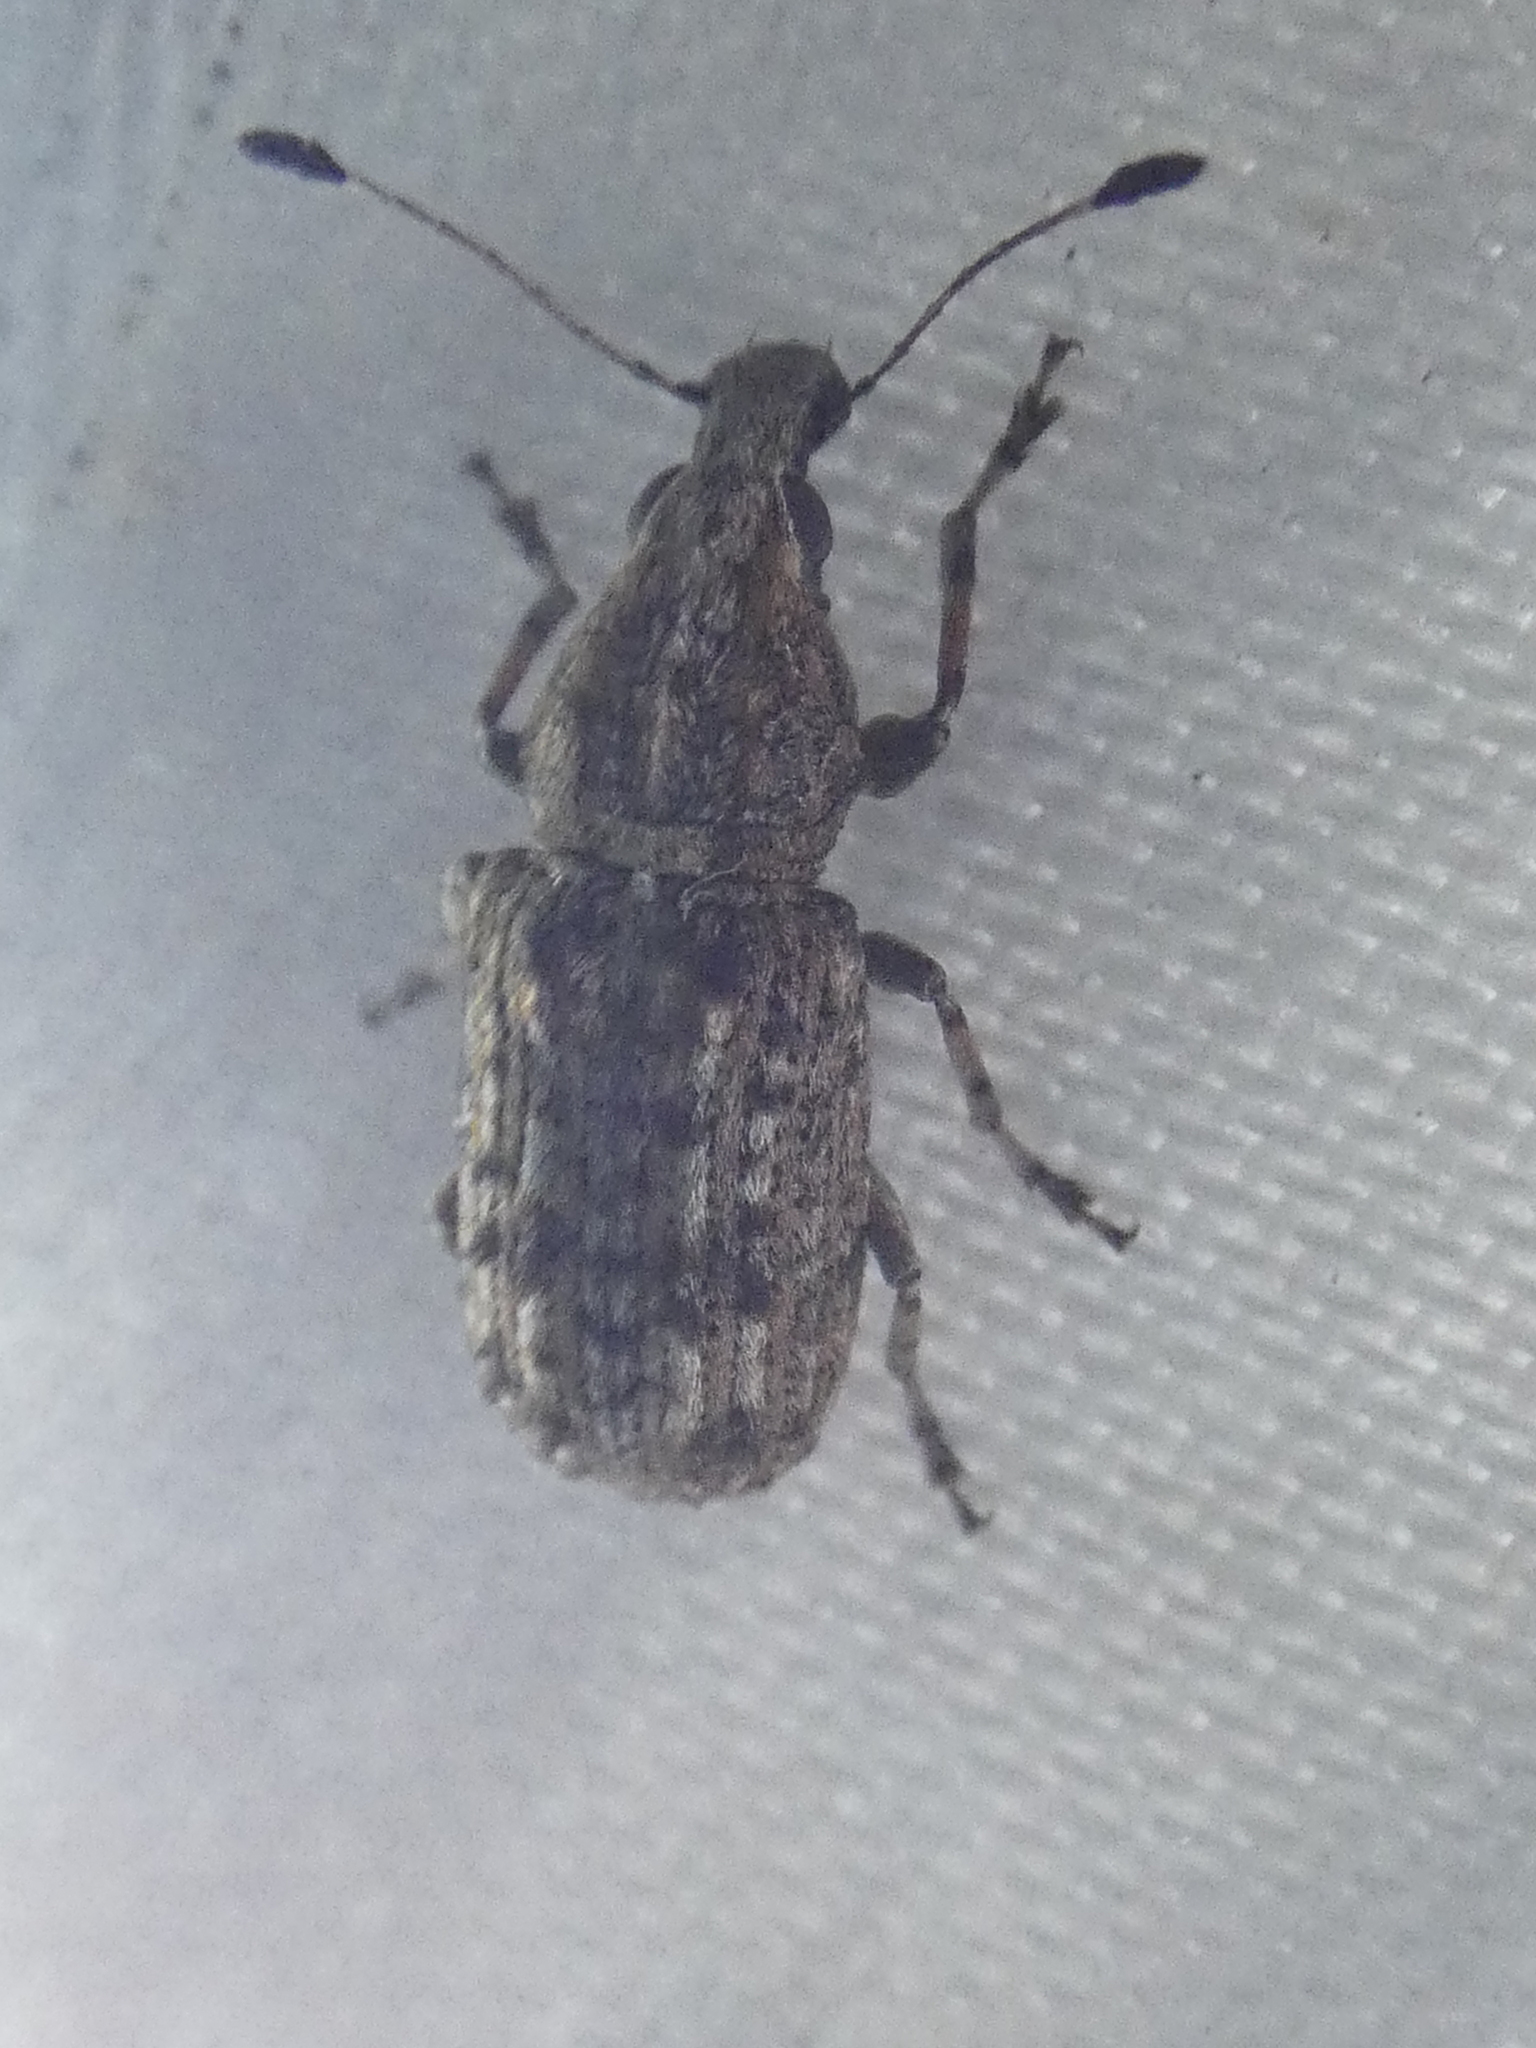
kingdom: Animalia
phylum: Arthropoda
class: Insecta
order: Coleoptera
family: Anthribidae
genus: Meconemus
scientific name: Meconemus infuscatus
